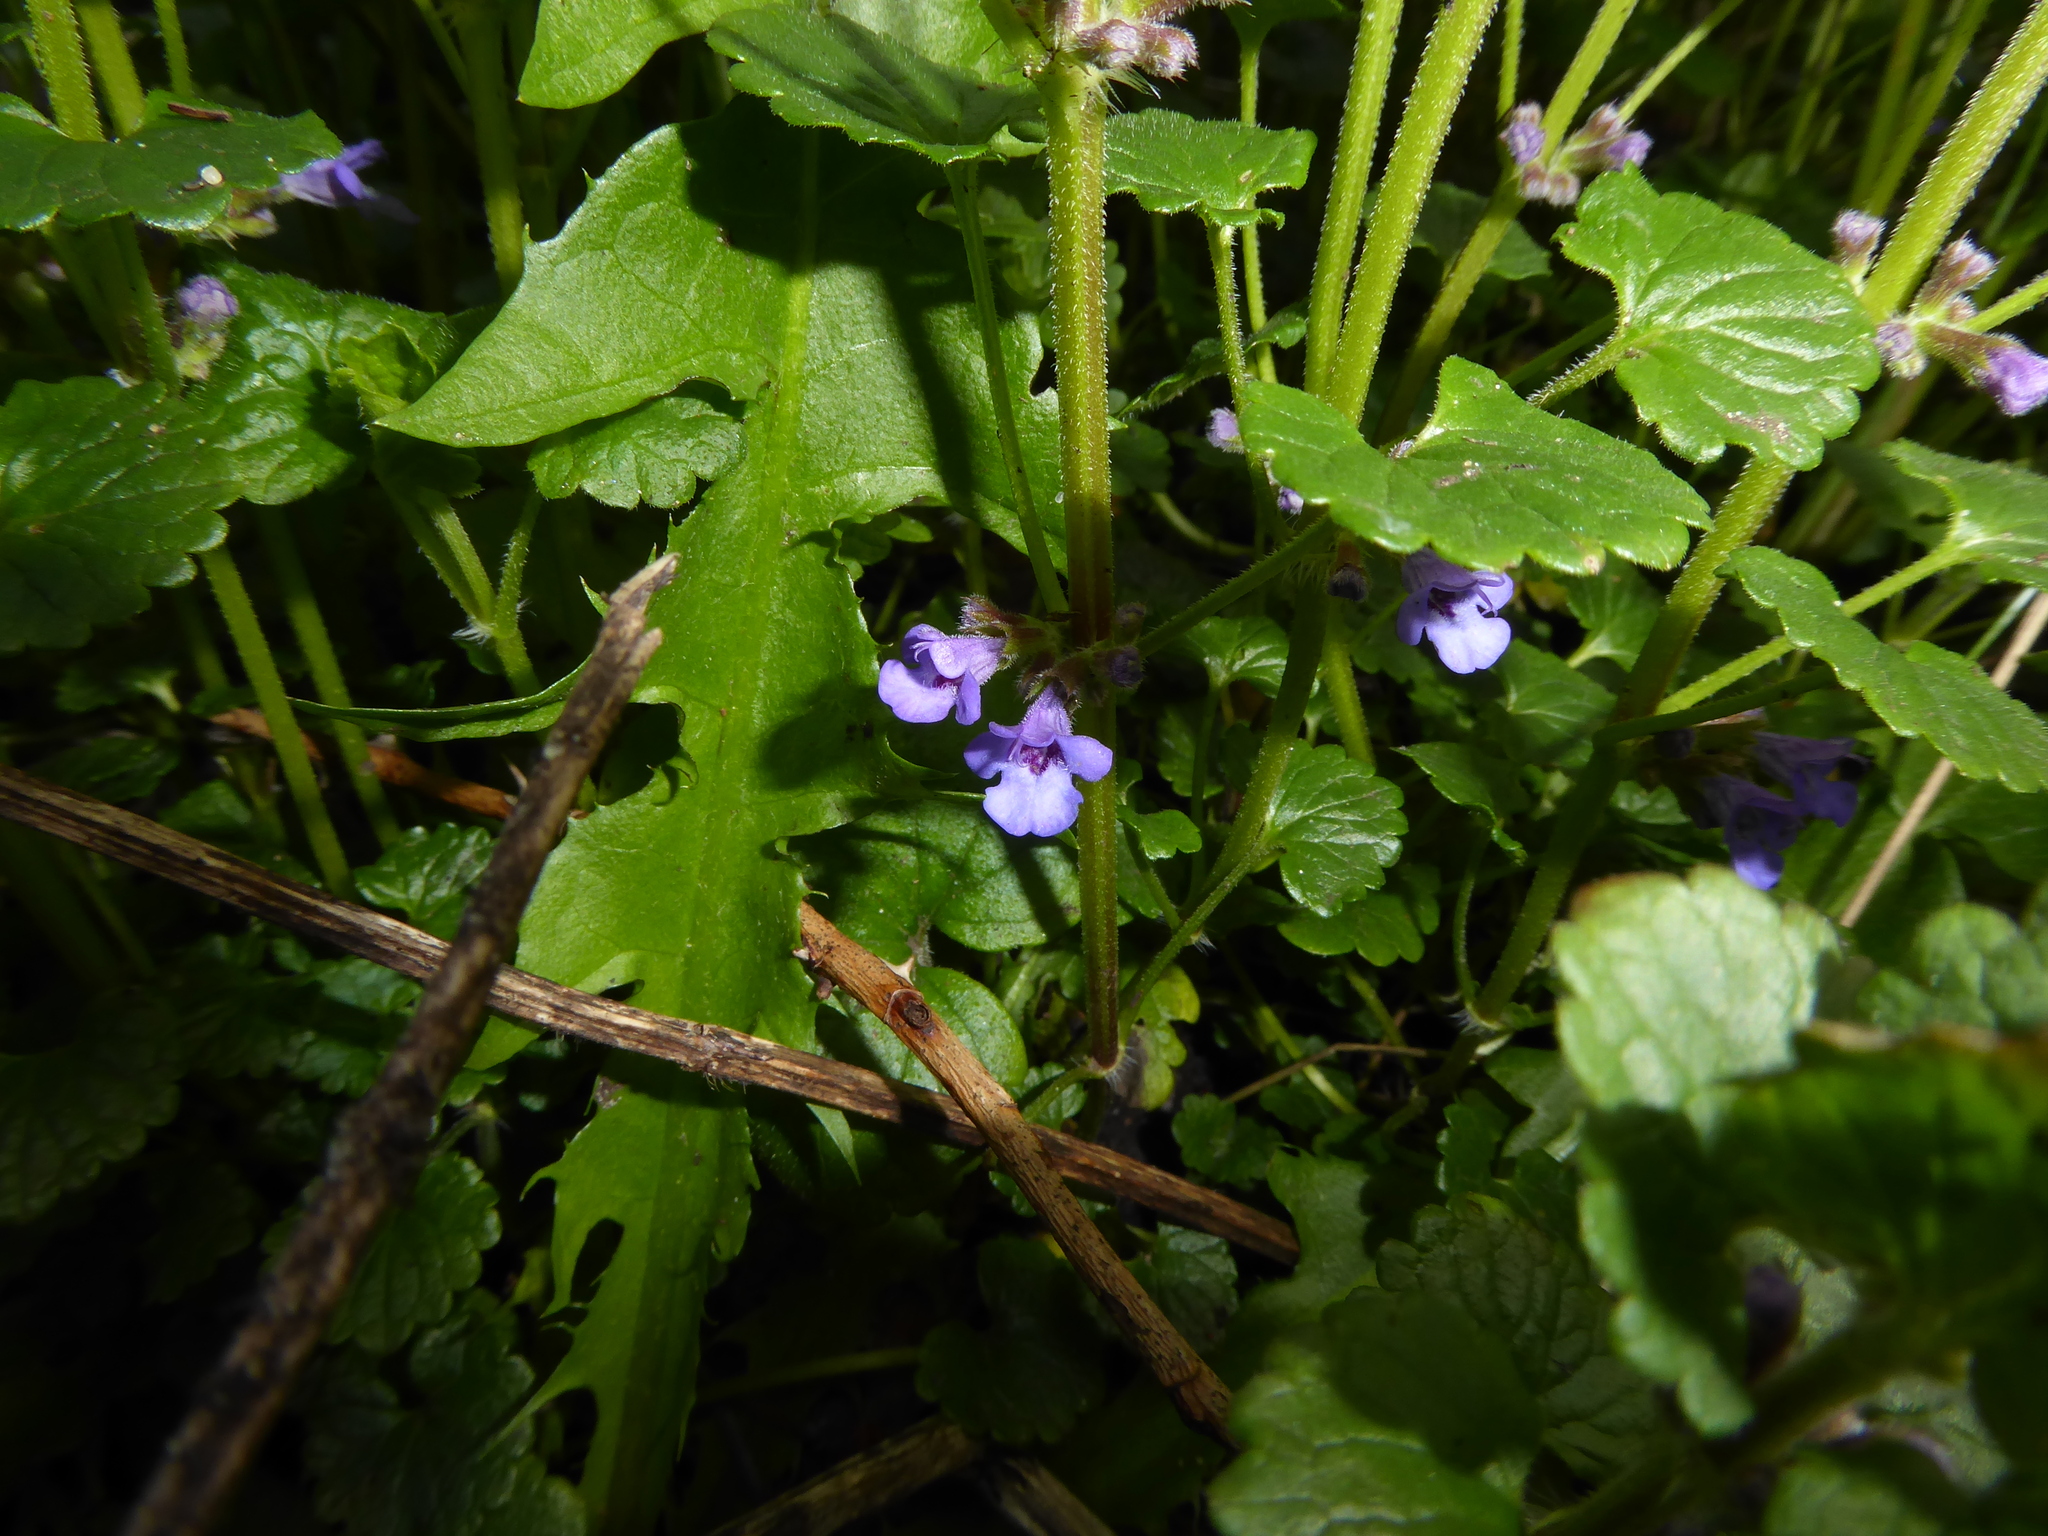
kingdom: Plantae
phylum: Tracheophyta
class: Magnoliopsida
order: Lamiales
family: Lamiaceae
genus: Glechoma
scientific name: Glechoma hederacea
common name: Ground ivy
